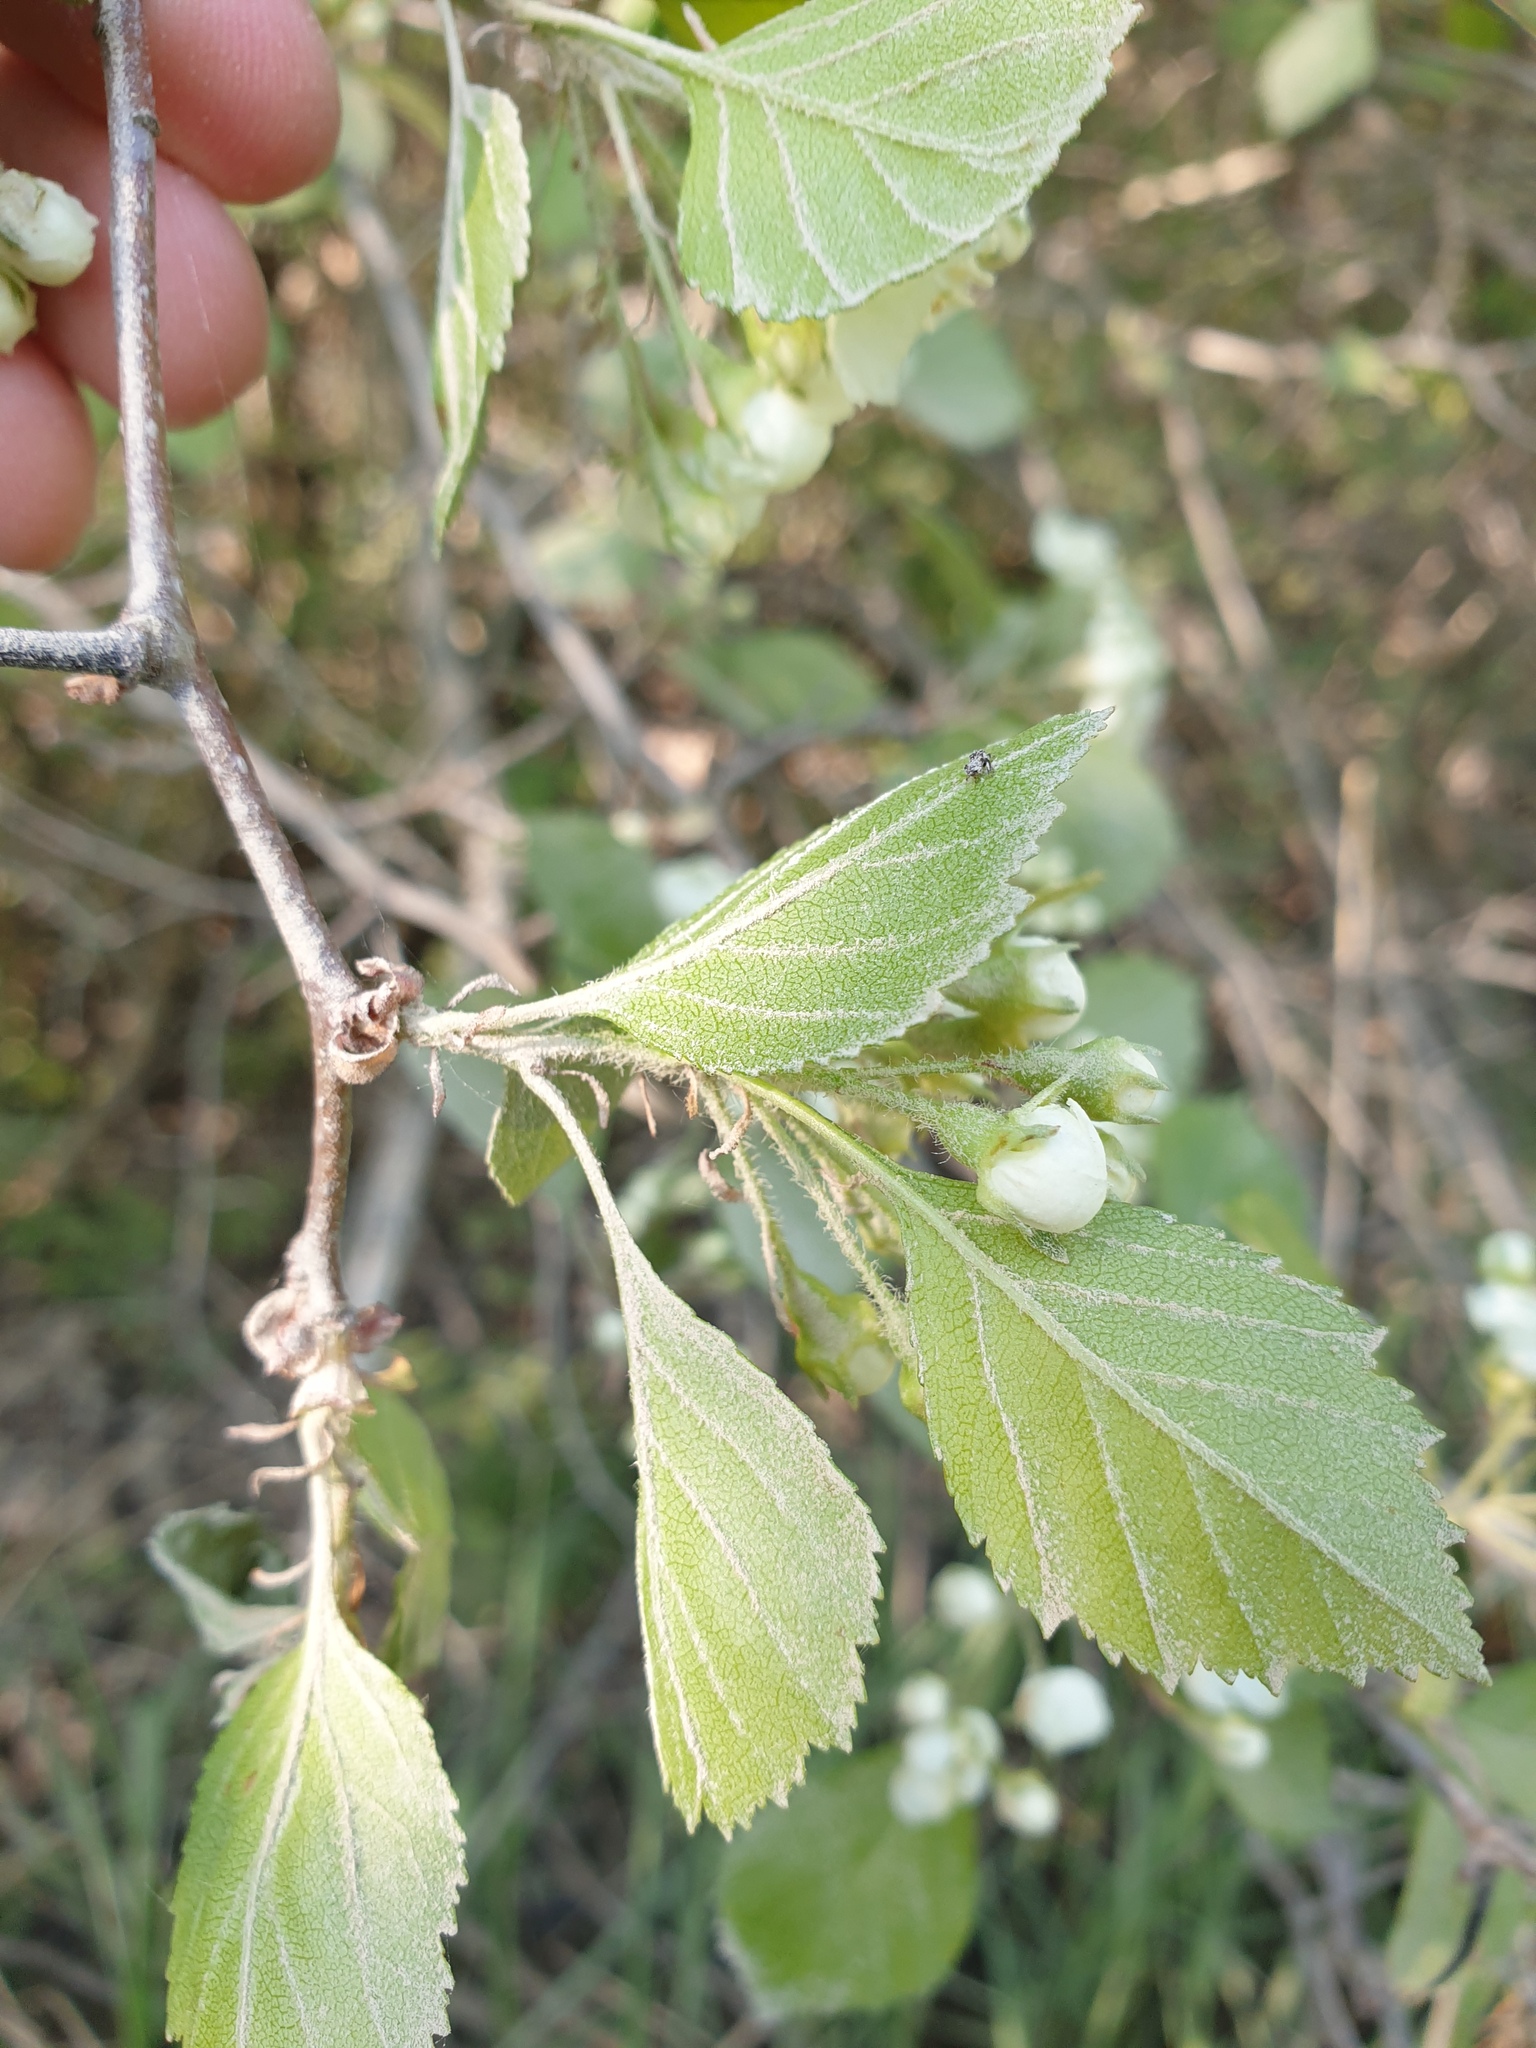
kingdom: Plantae
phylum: Tracheophyta
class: Magnoliopsida
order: Rosales
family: Rosaceae
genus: Crataegus
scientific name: Crataegus dodgei
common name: Dodge's hawthorn
